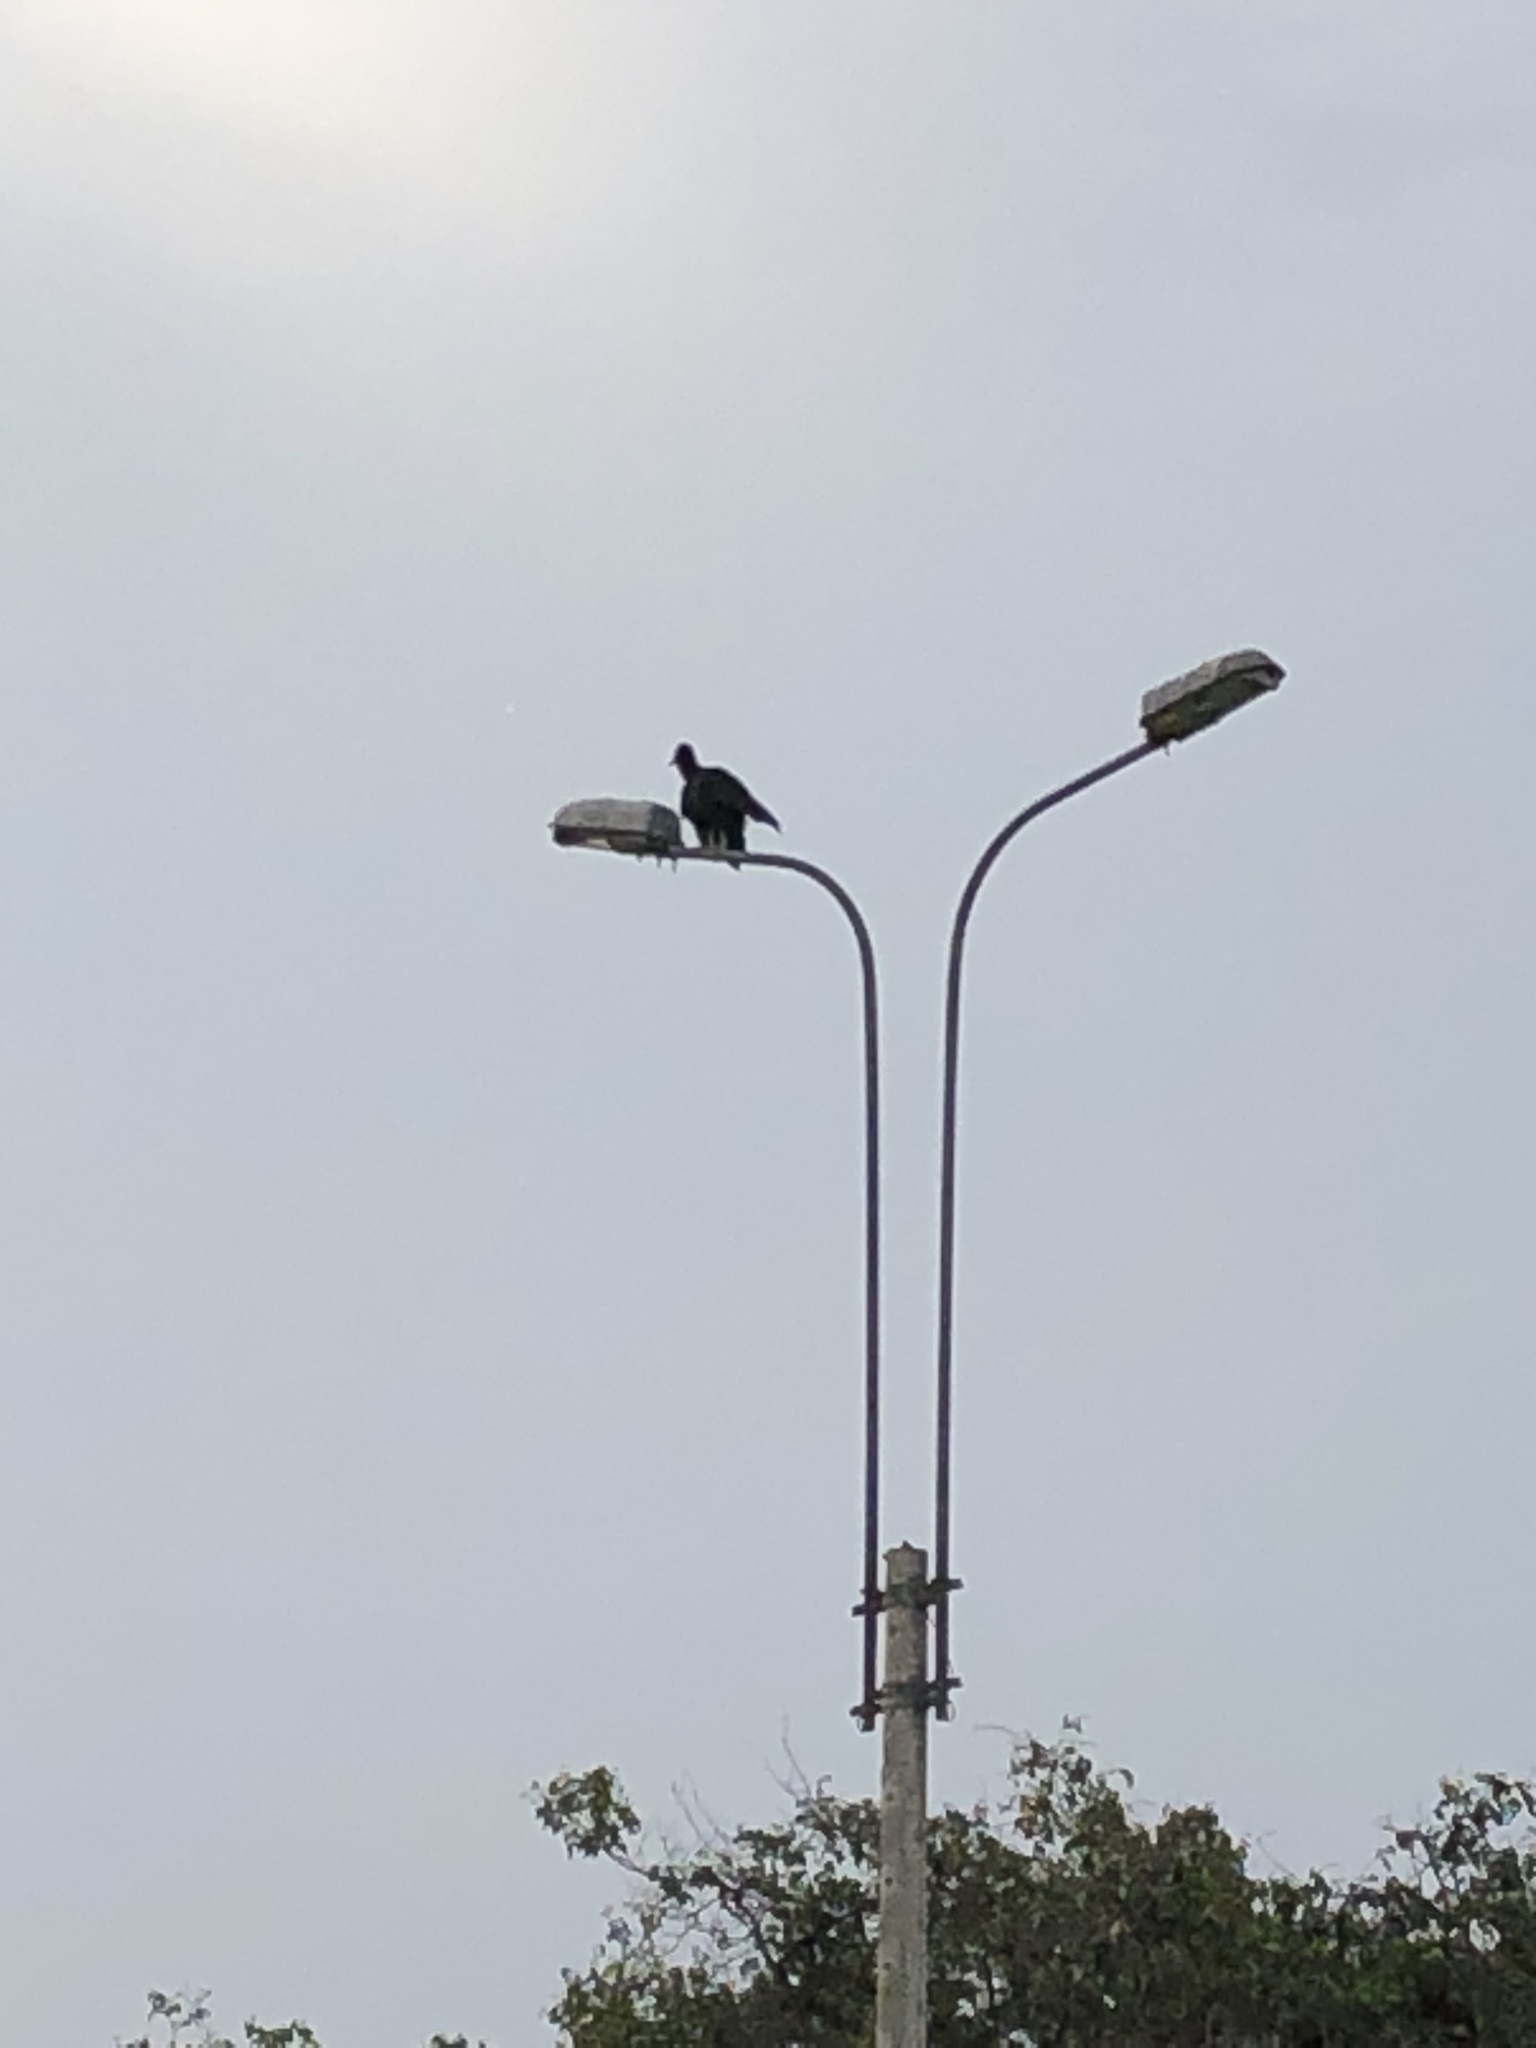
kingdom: Animalia
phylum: Chordata
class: Aves
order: Accipitriformes
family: Cathartidae
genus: Coragyps
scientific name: Coragyps atratus
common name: Black vulture
